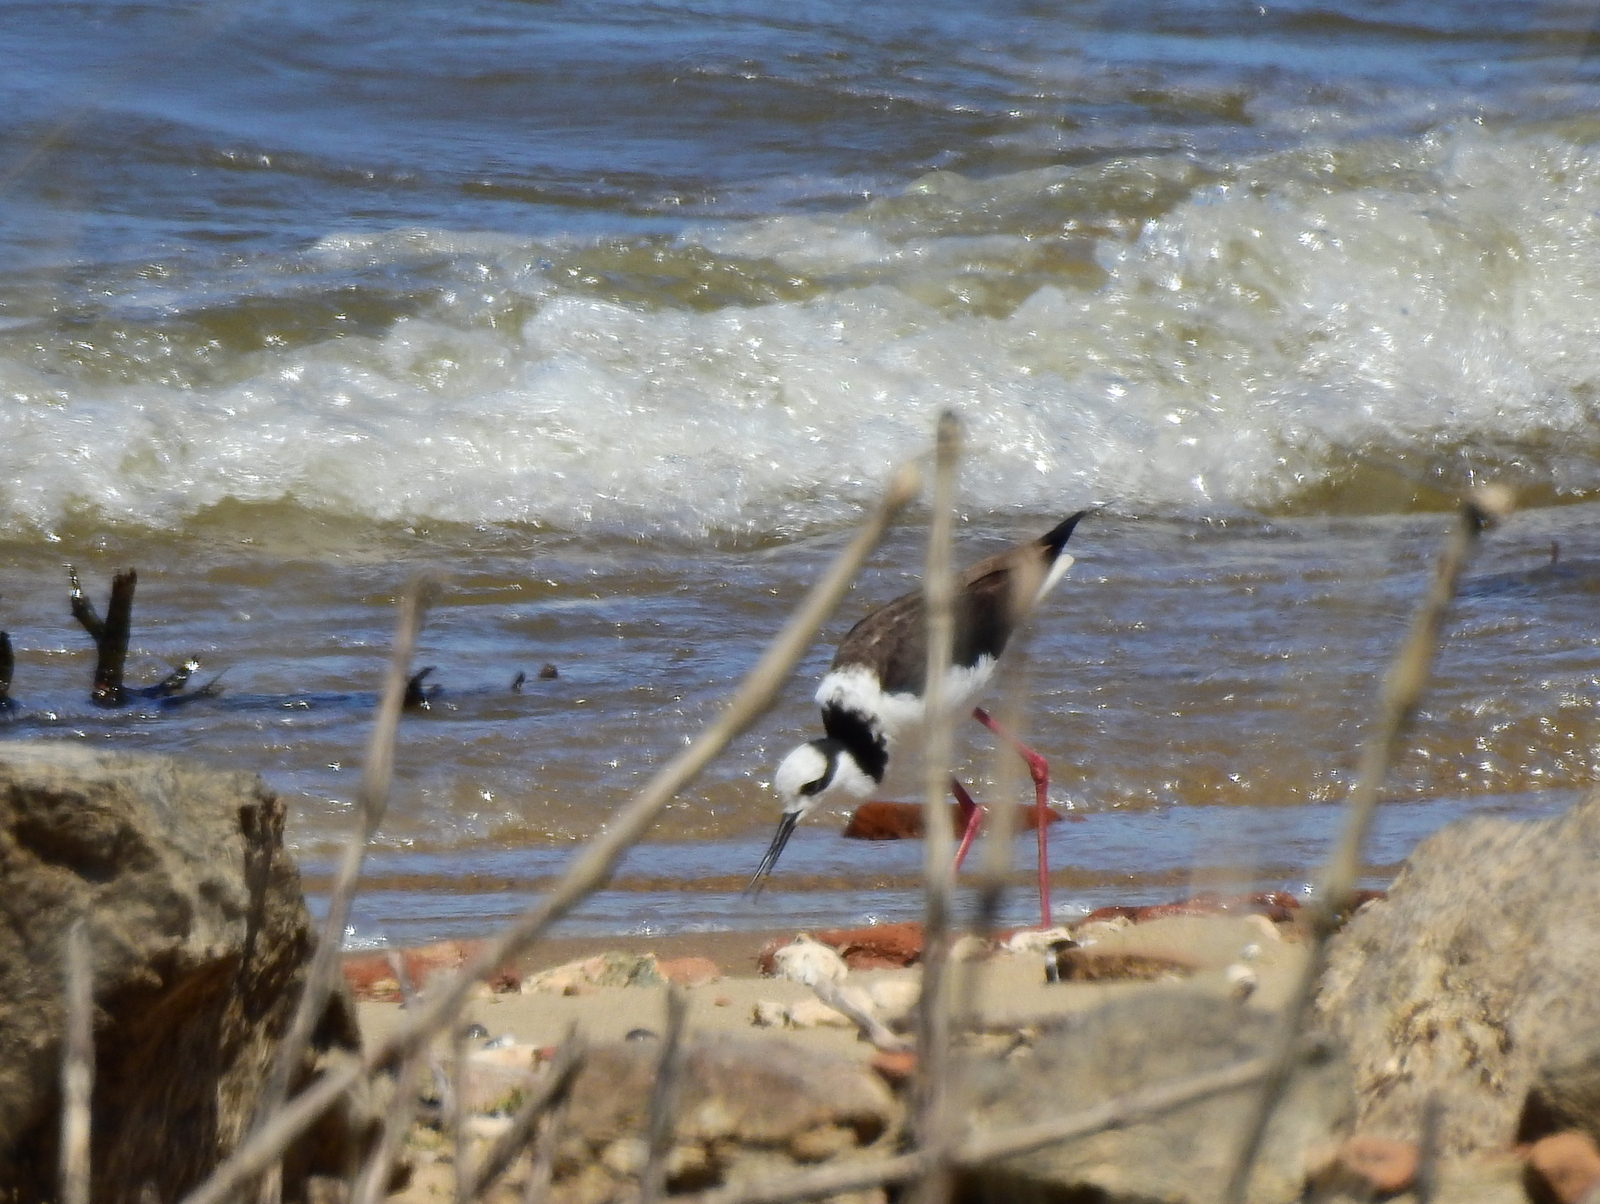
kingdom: Animalia
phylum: Chordata
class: Aves
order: Charadriiformes
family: Recurvirostridae
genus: Himantopus
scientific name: Himantopus mexicanus
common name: Black-necked stilt
